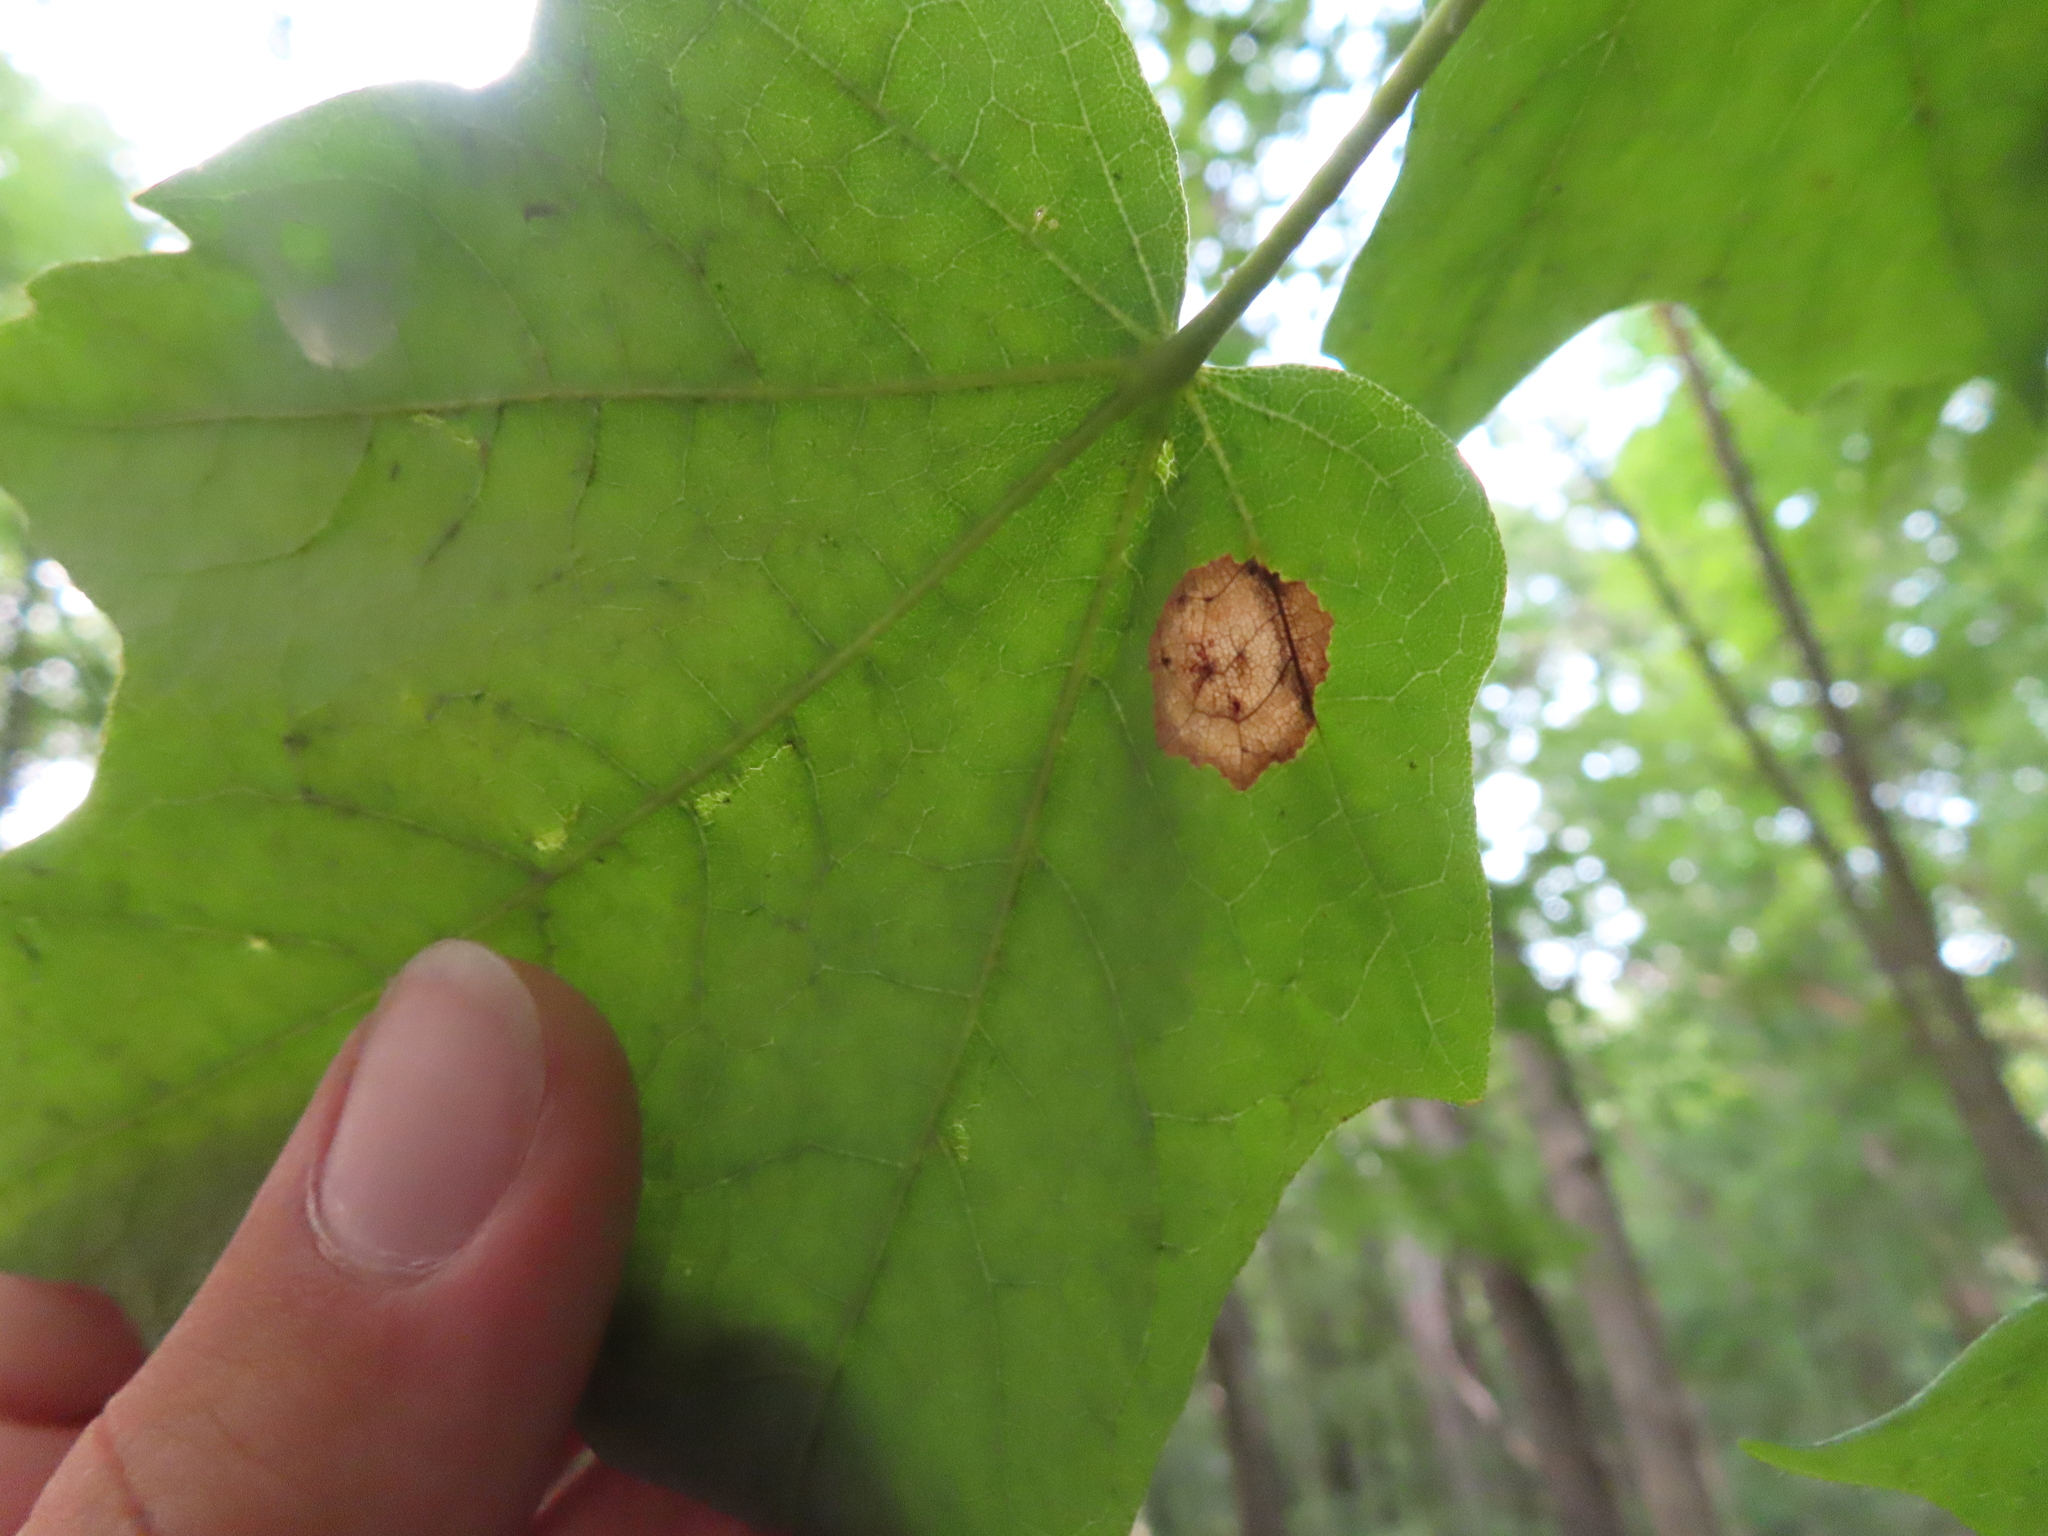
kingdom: Animalia
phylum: Arthropoda
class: Insecta
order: Diptera
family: Cecidomyiidae
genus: Acericecis
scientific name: Acericecis ocellaris
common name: Ocellate gall midge
